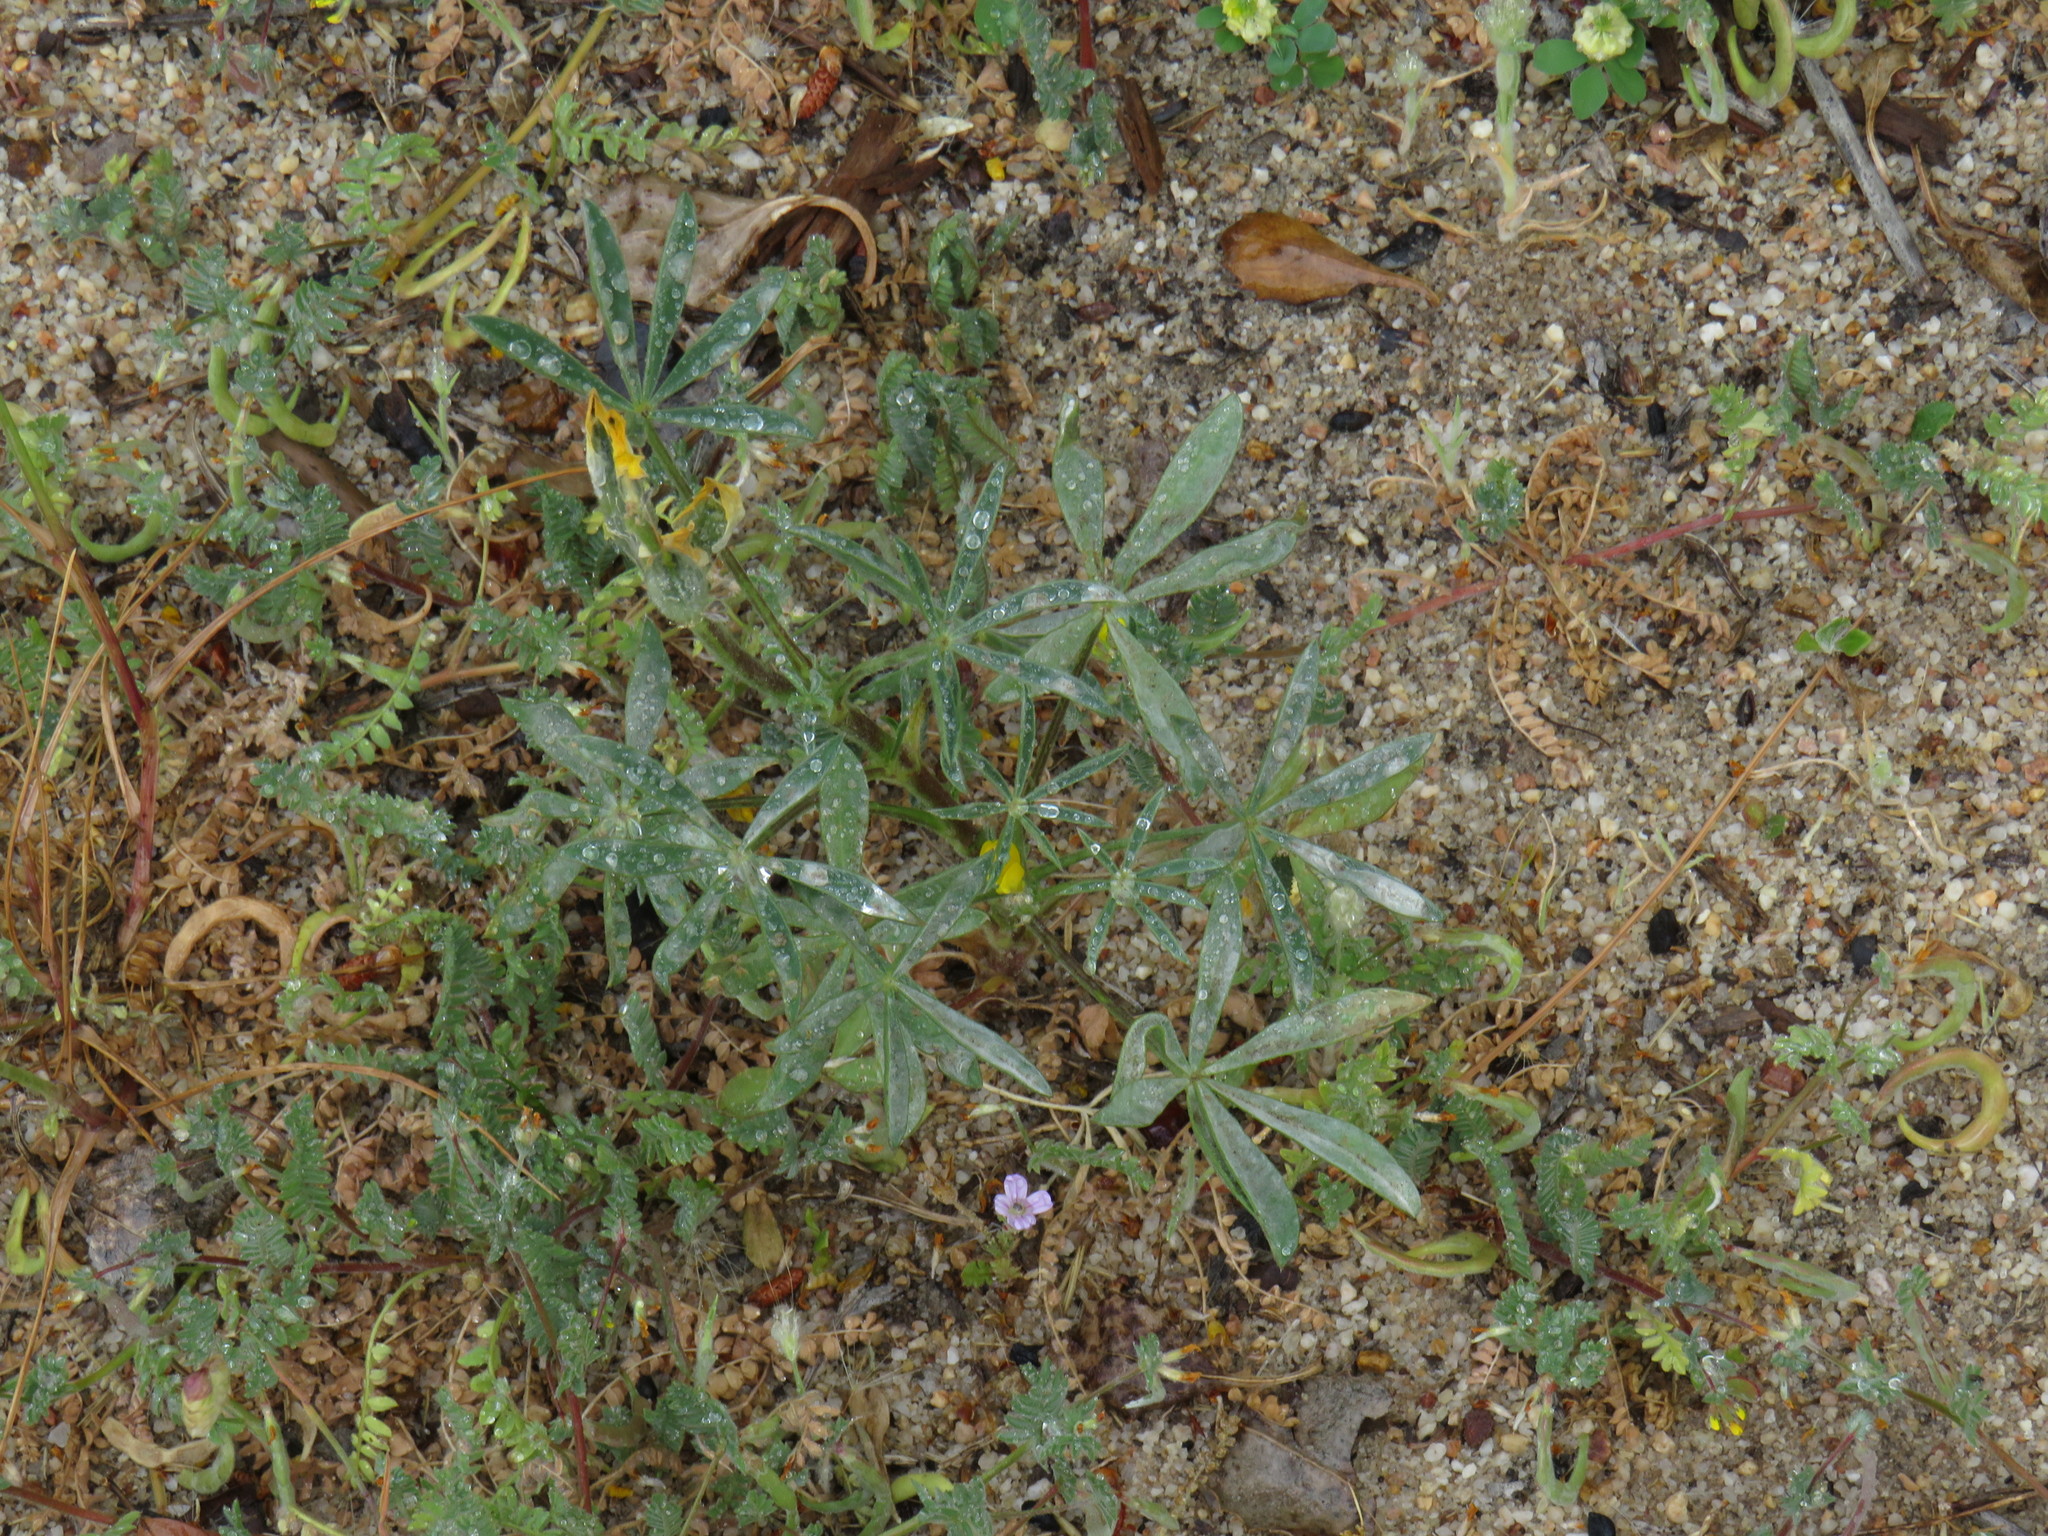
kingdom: Plantae
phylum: Tracheophyta
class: Magnoliopsida
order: Fabales
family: Fabaceae
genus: Lupinus
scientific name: Lupinus luteus
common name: European yellow lupine
